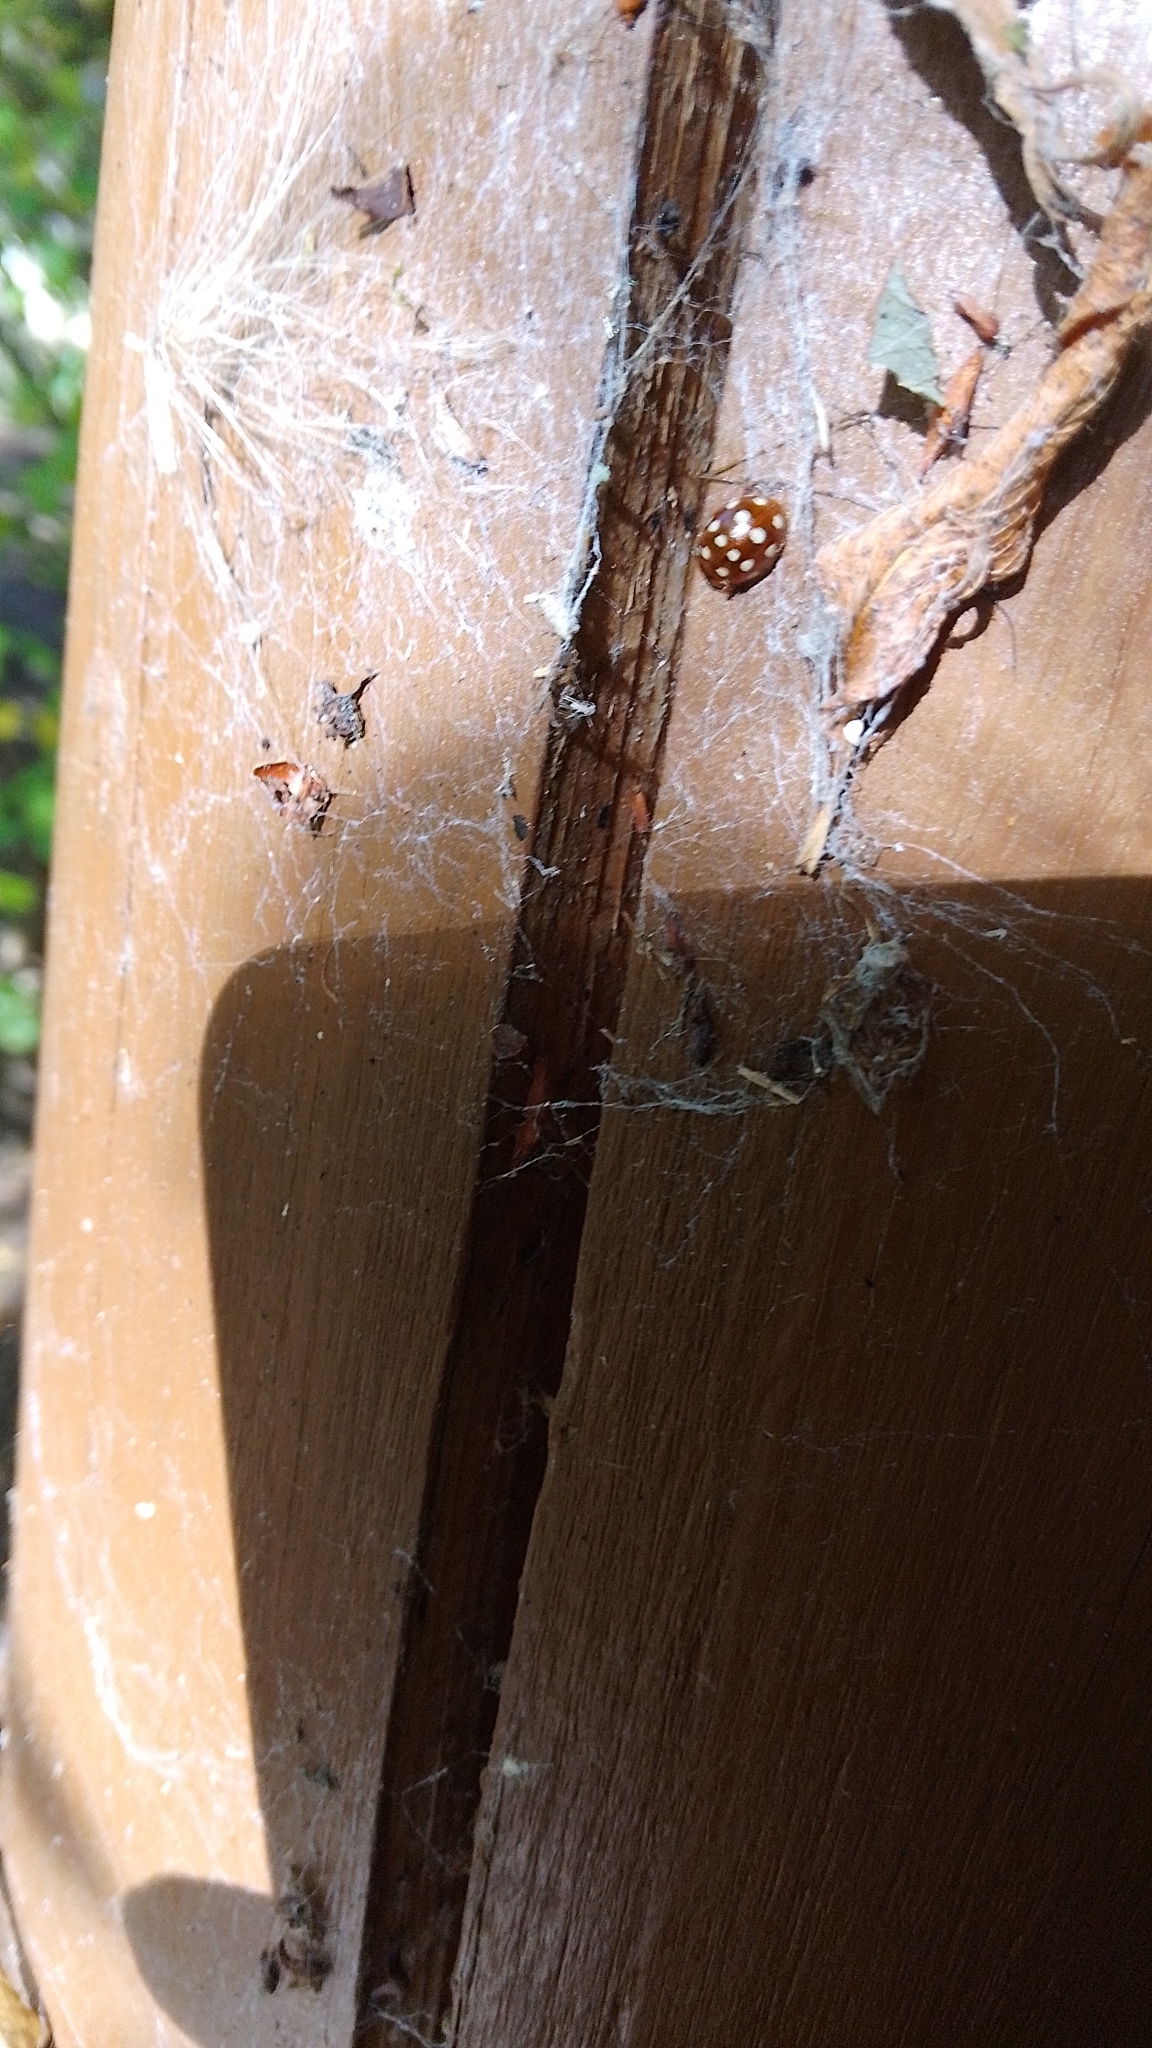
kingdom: Animalia
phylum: Arthropoda
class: Insecta
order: Coleoptera
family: Coccinellidae
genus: Calvia
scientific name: Calvia quatuordecimguttata
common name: Cream-spot ladybird
